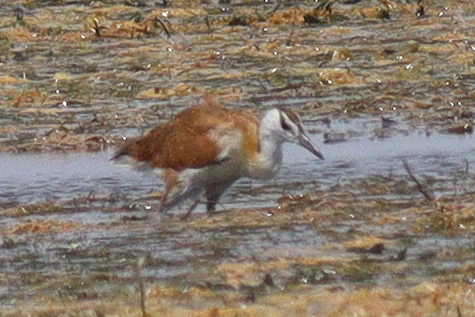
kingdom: Animalia
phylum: Chordata
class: Aves
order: Charadriiformes
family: Jacanidae
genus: Actophilornis
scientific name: Actophilornis africanus
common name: African jacana
